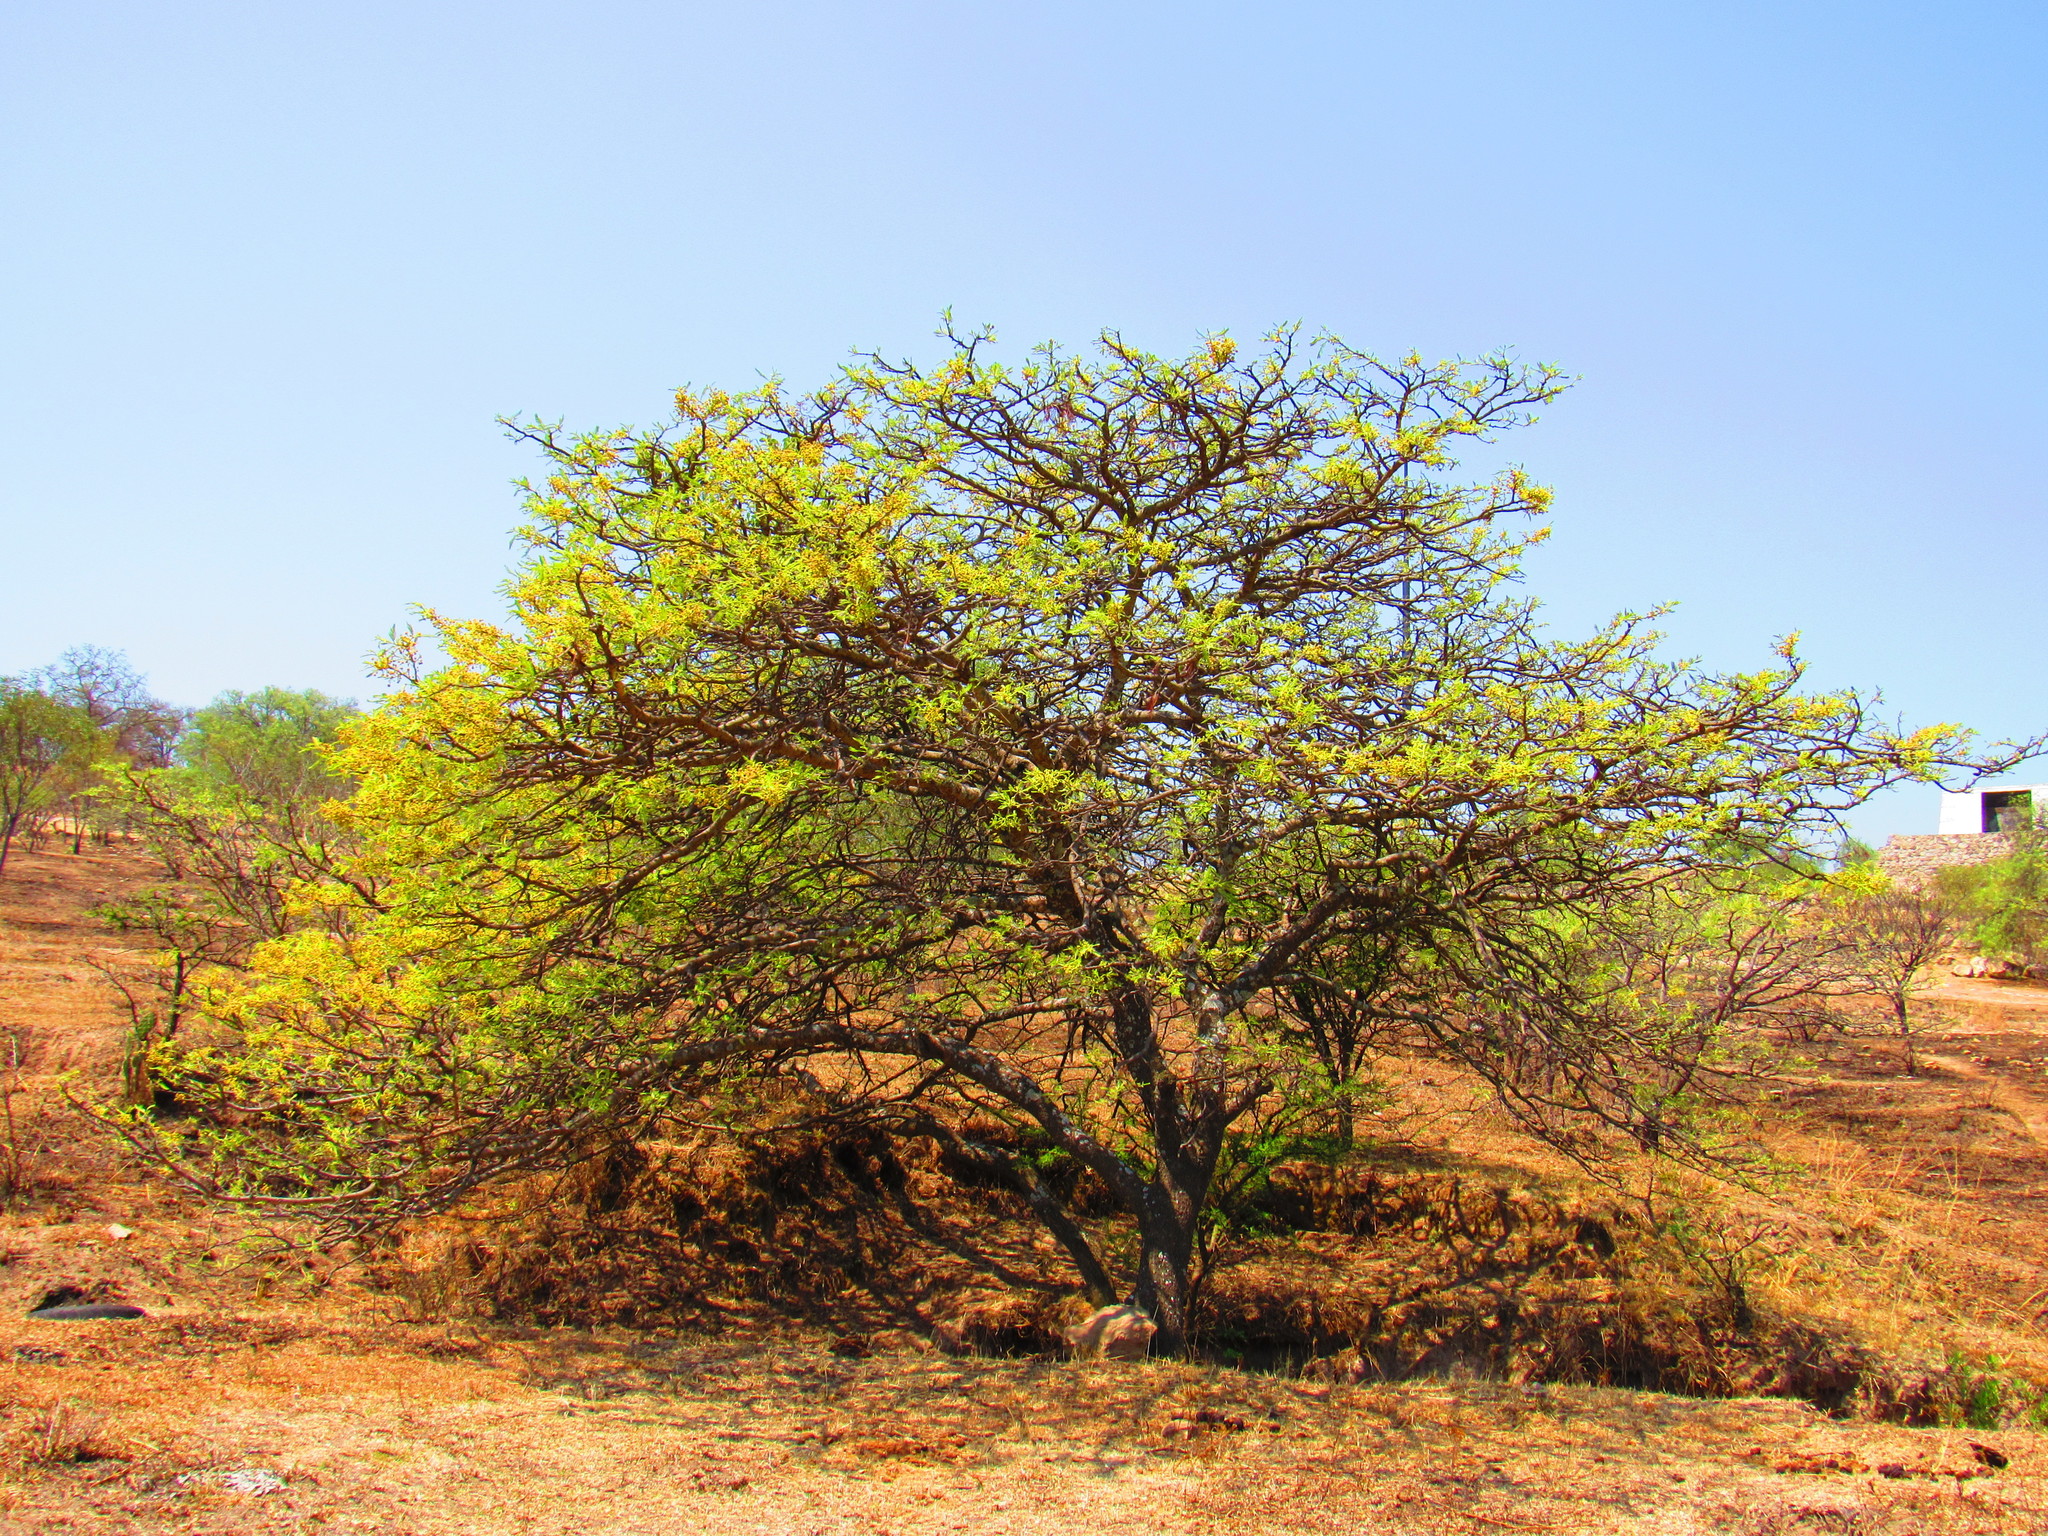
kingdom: Plantae
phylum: Tracheophyta
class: Magnoliopsida
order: Fabales
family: Fabaceae
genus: Vachellia
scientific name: Vachellia schaffneri
